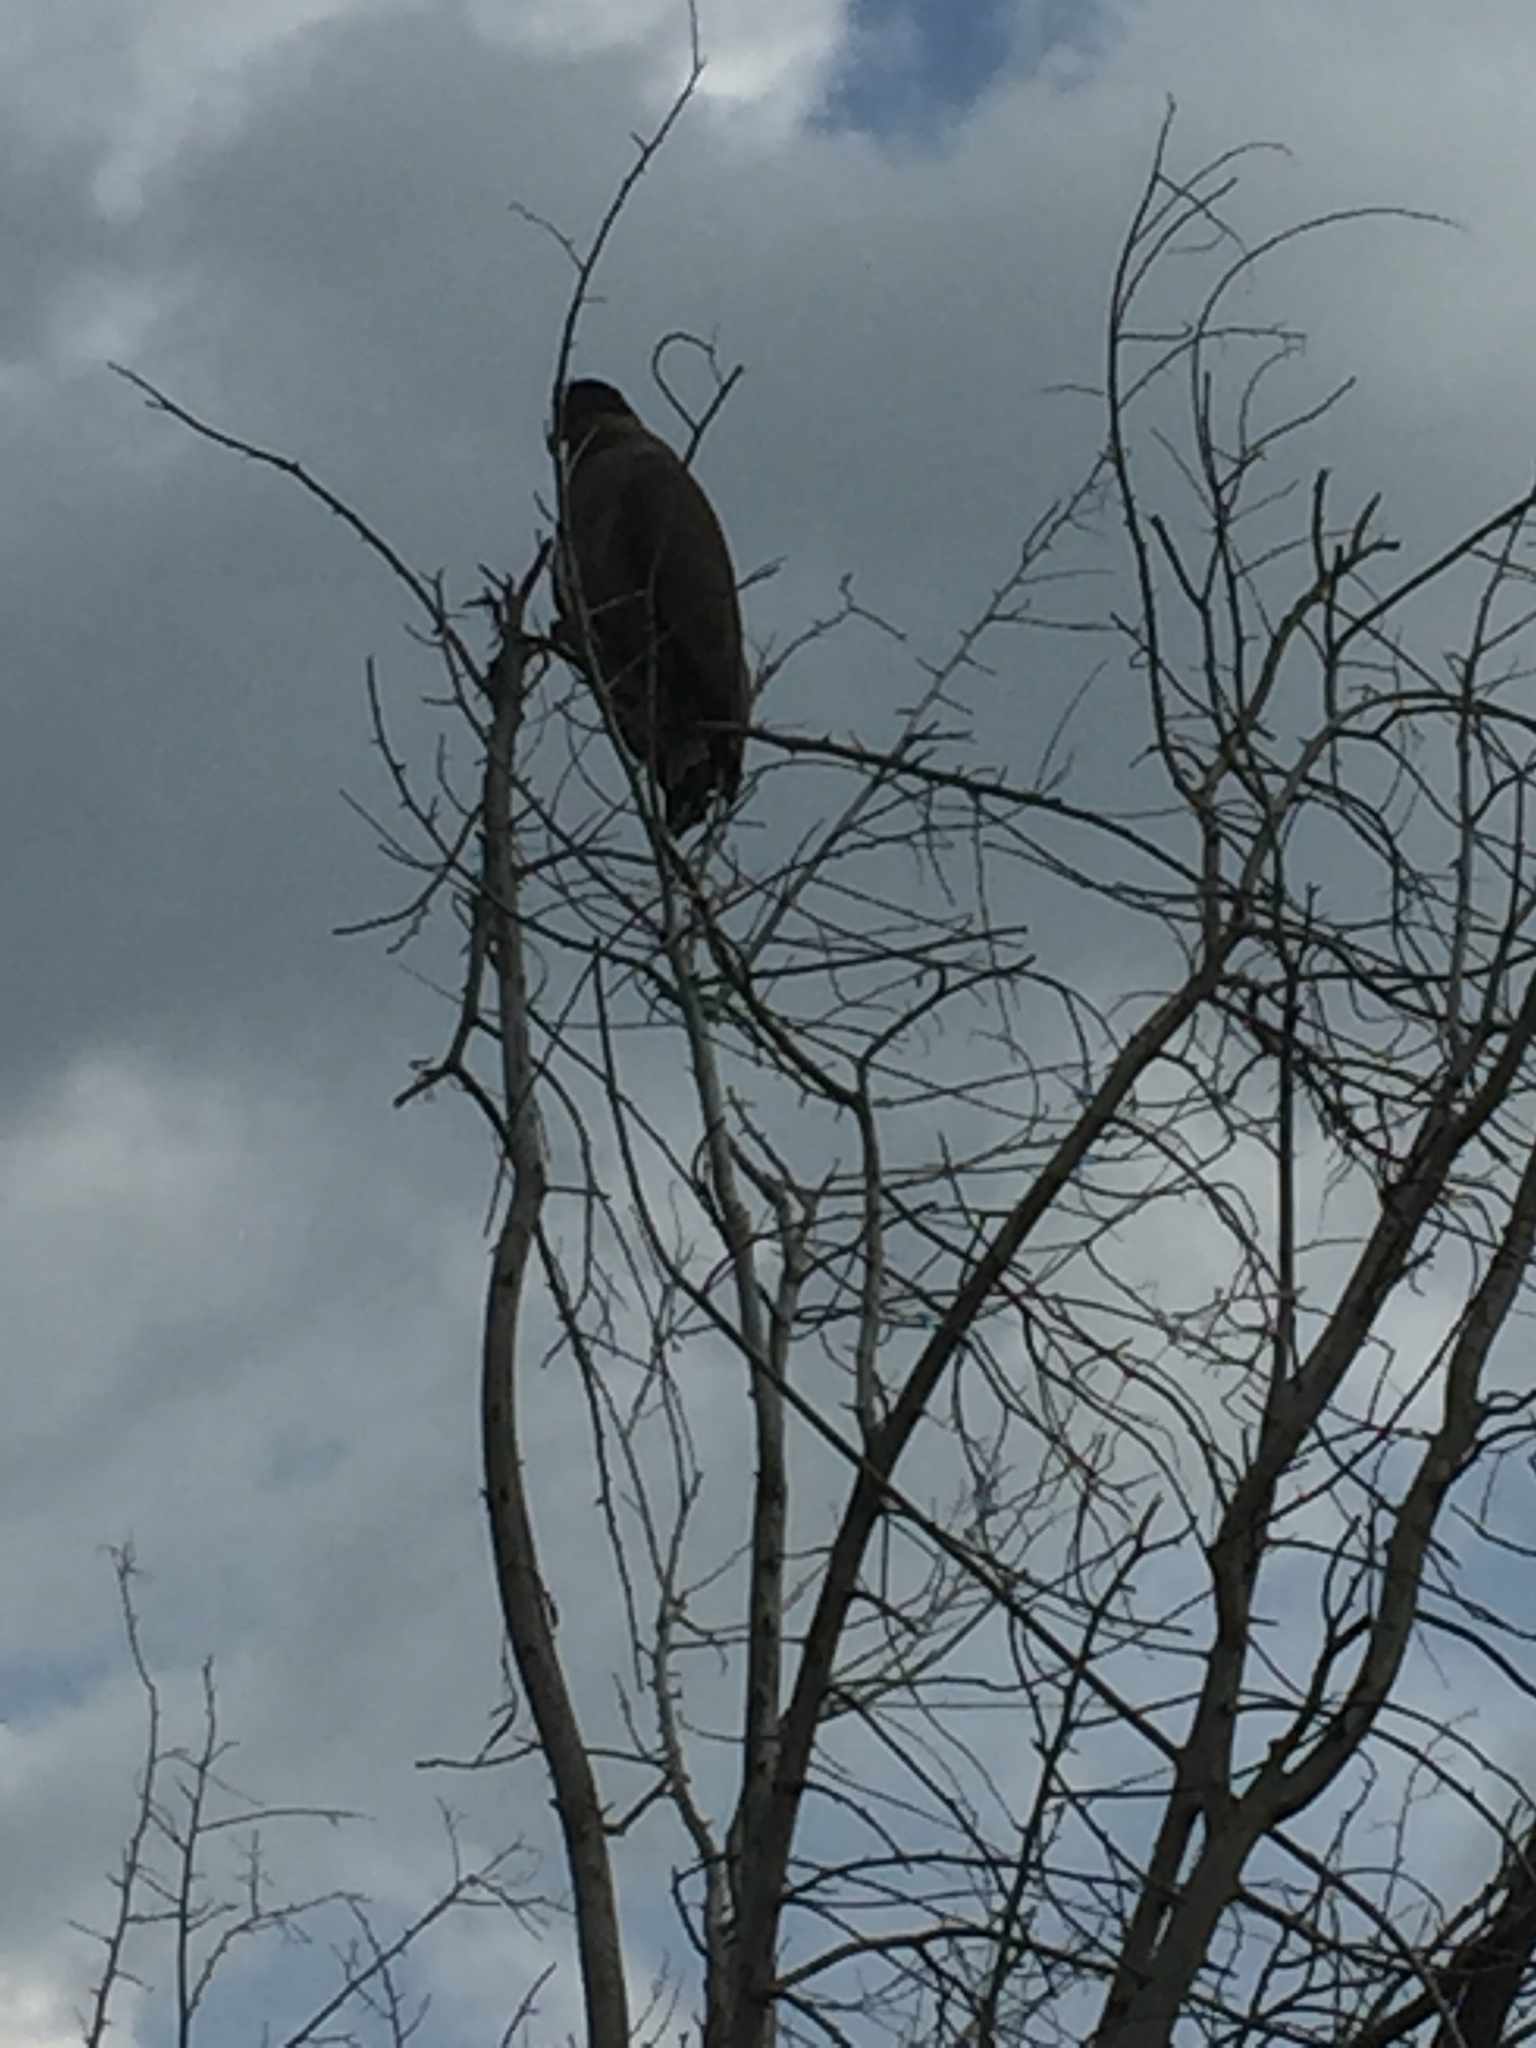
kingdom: Animalia
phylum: Chordata
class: Aves
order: Accipitriformes
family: Accipitridae
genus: Spilornis
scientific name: Spilornis cheela
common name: Crested serpent eagle
